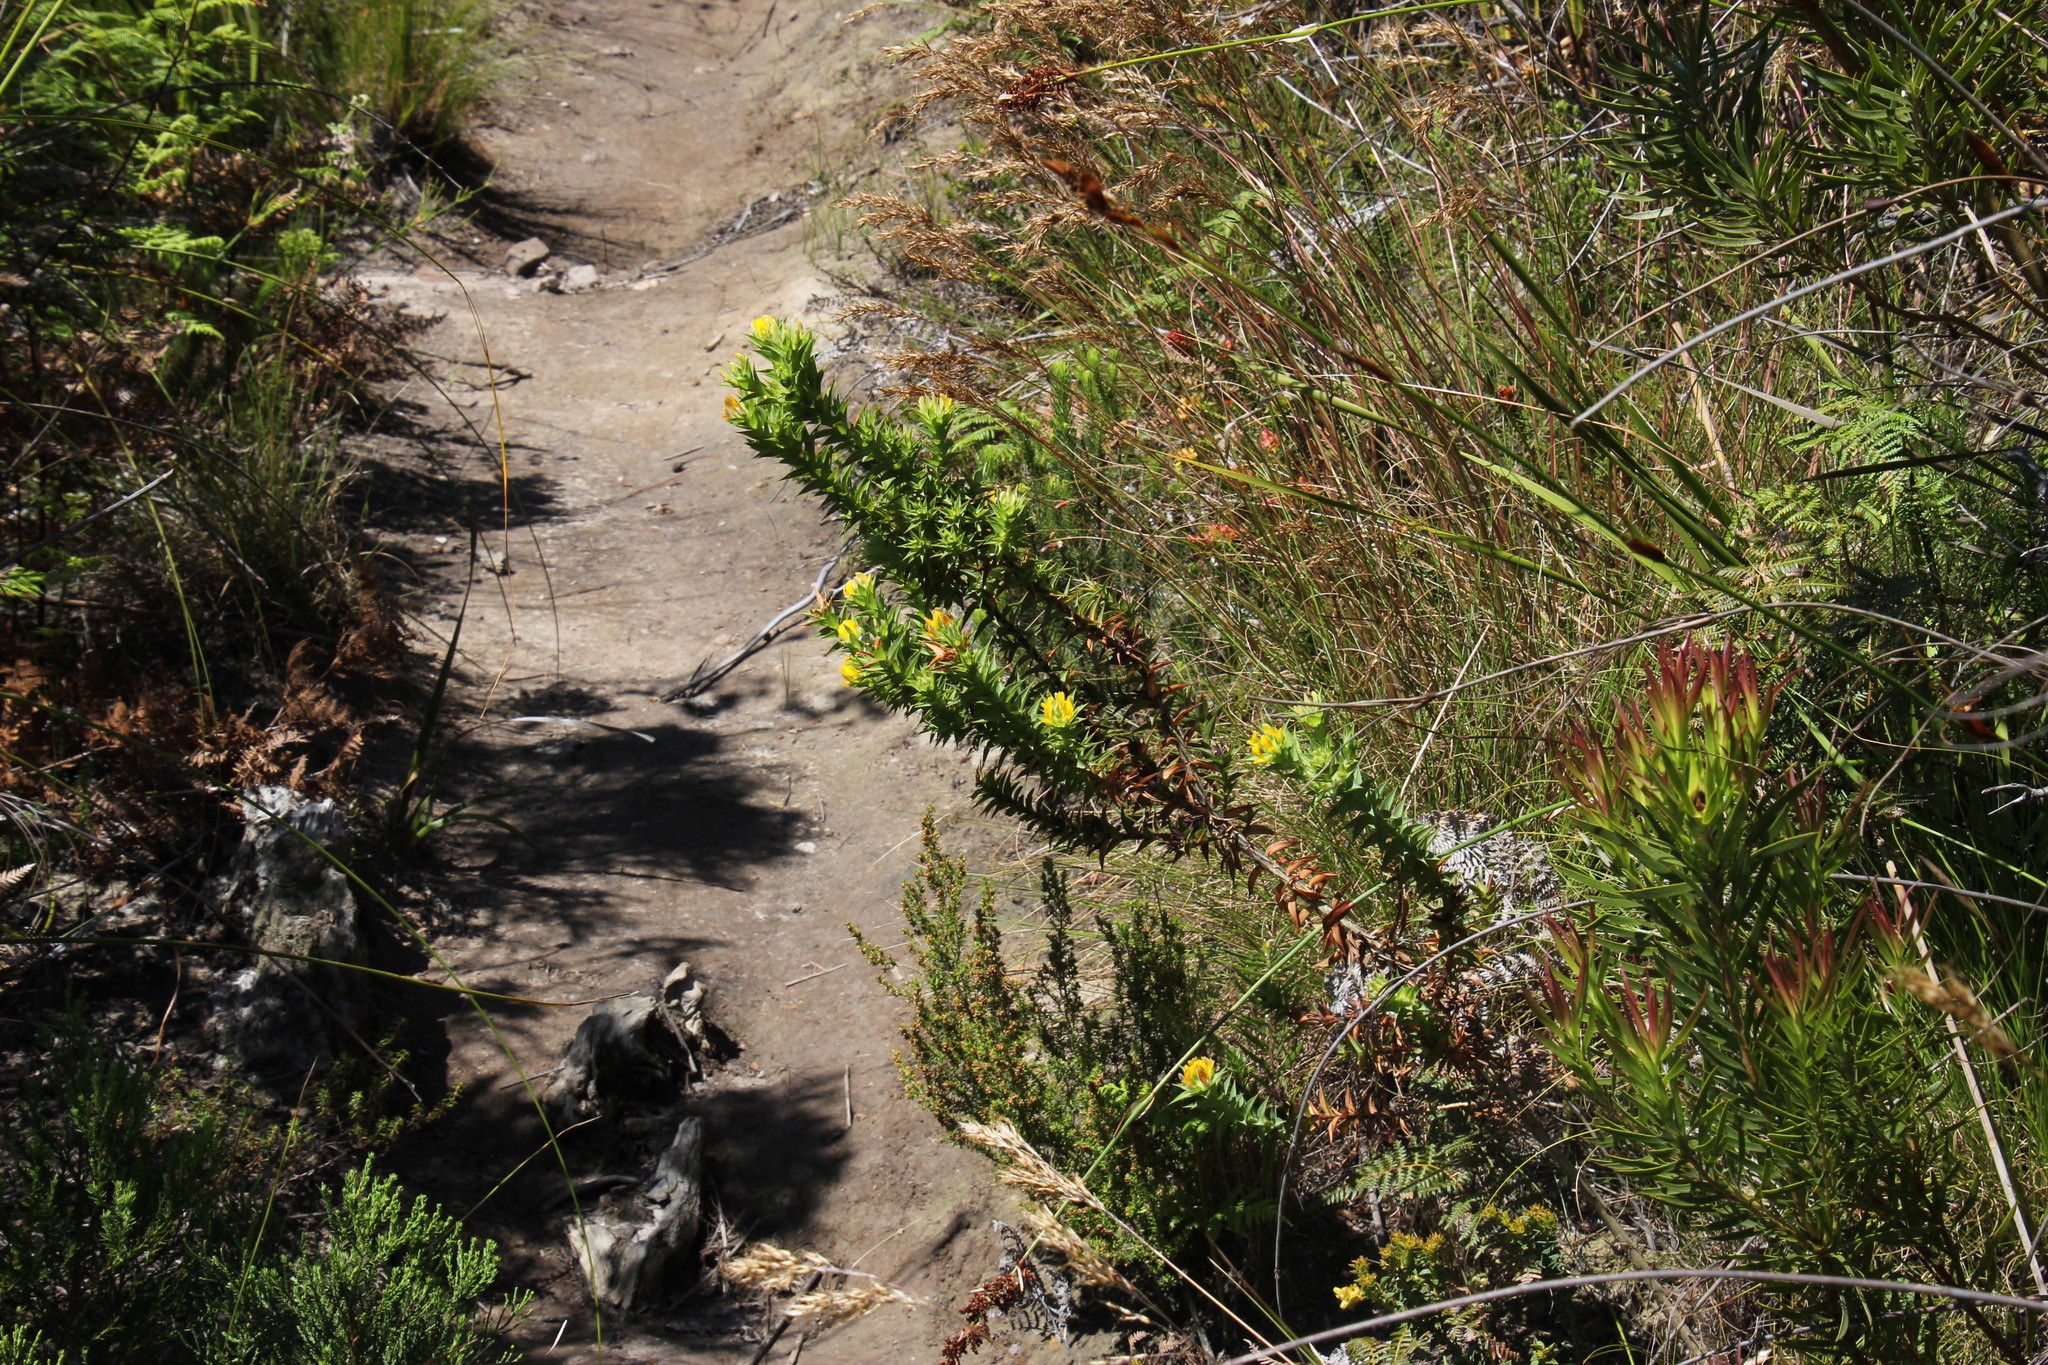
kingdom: Plantae
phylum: Tracheophyta
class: Magnoliopsida
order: Fabales
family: Fabaceae
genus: Aspalathus
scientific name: Aspalathus cordata
